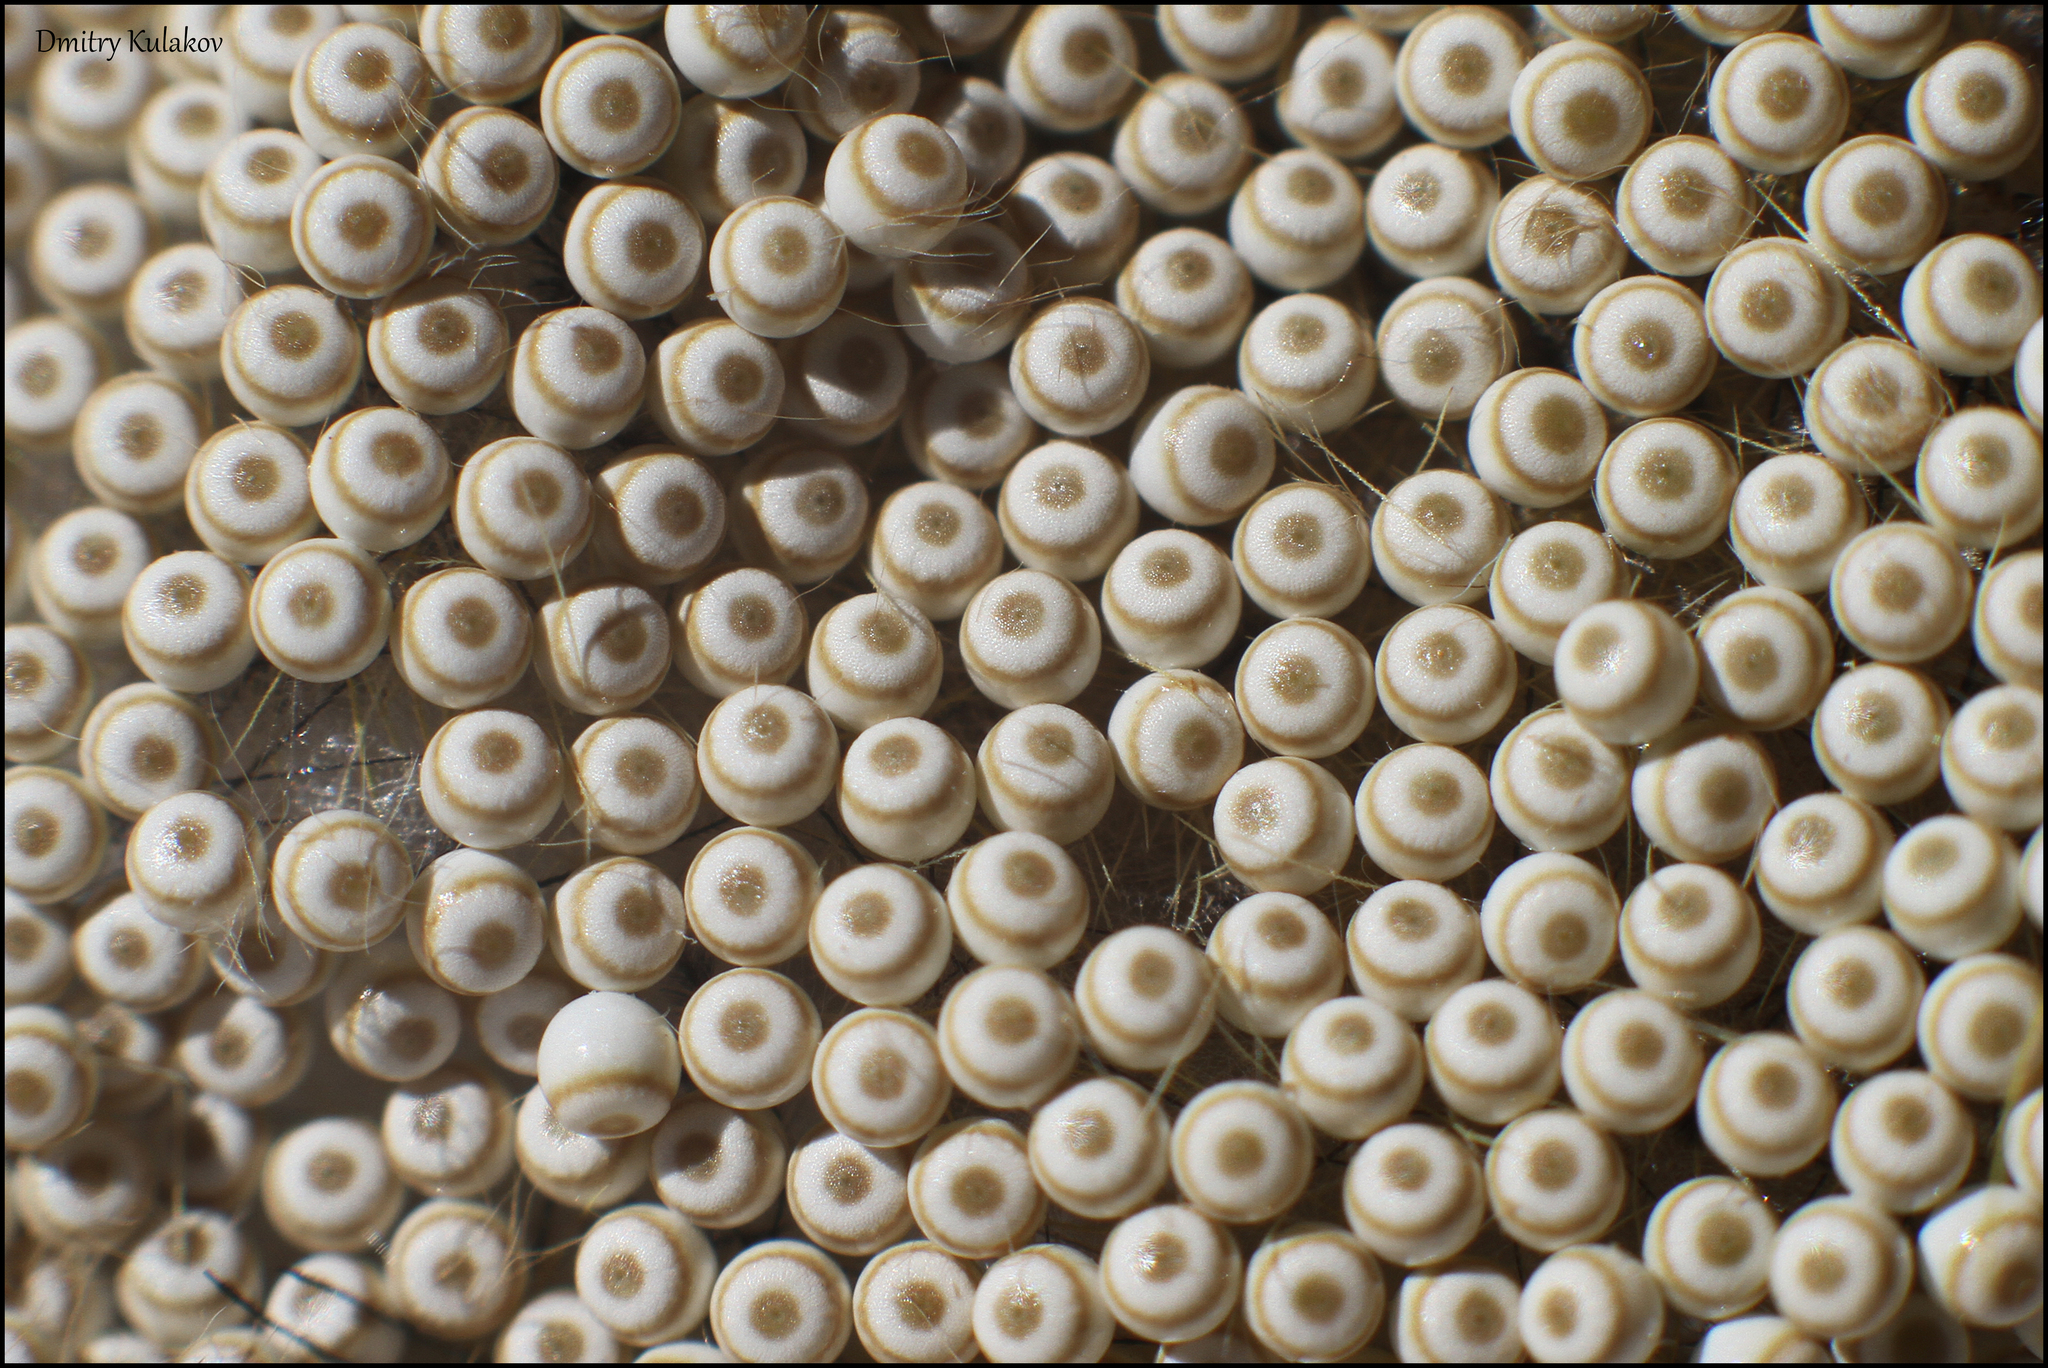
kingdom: Animalia
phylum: Arthropoda
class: Insecta
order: Lepidoptera
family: Erebidae
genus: Orgyia
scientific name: Orgyia antiqua
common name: Vapourer
